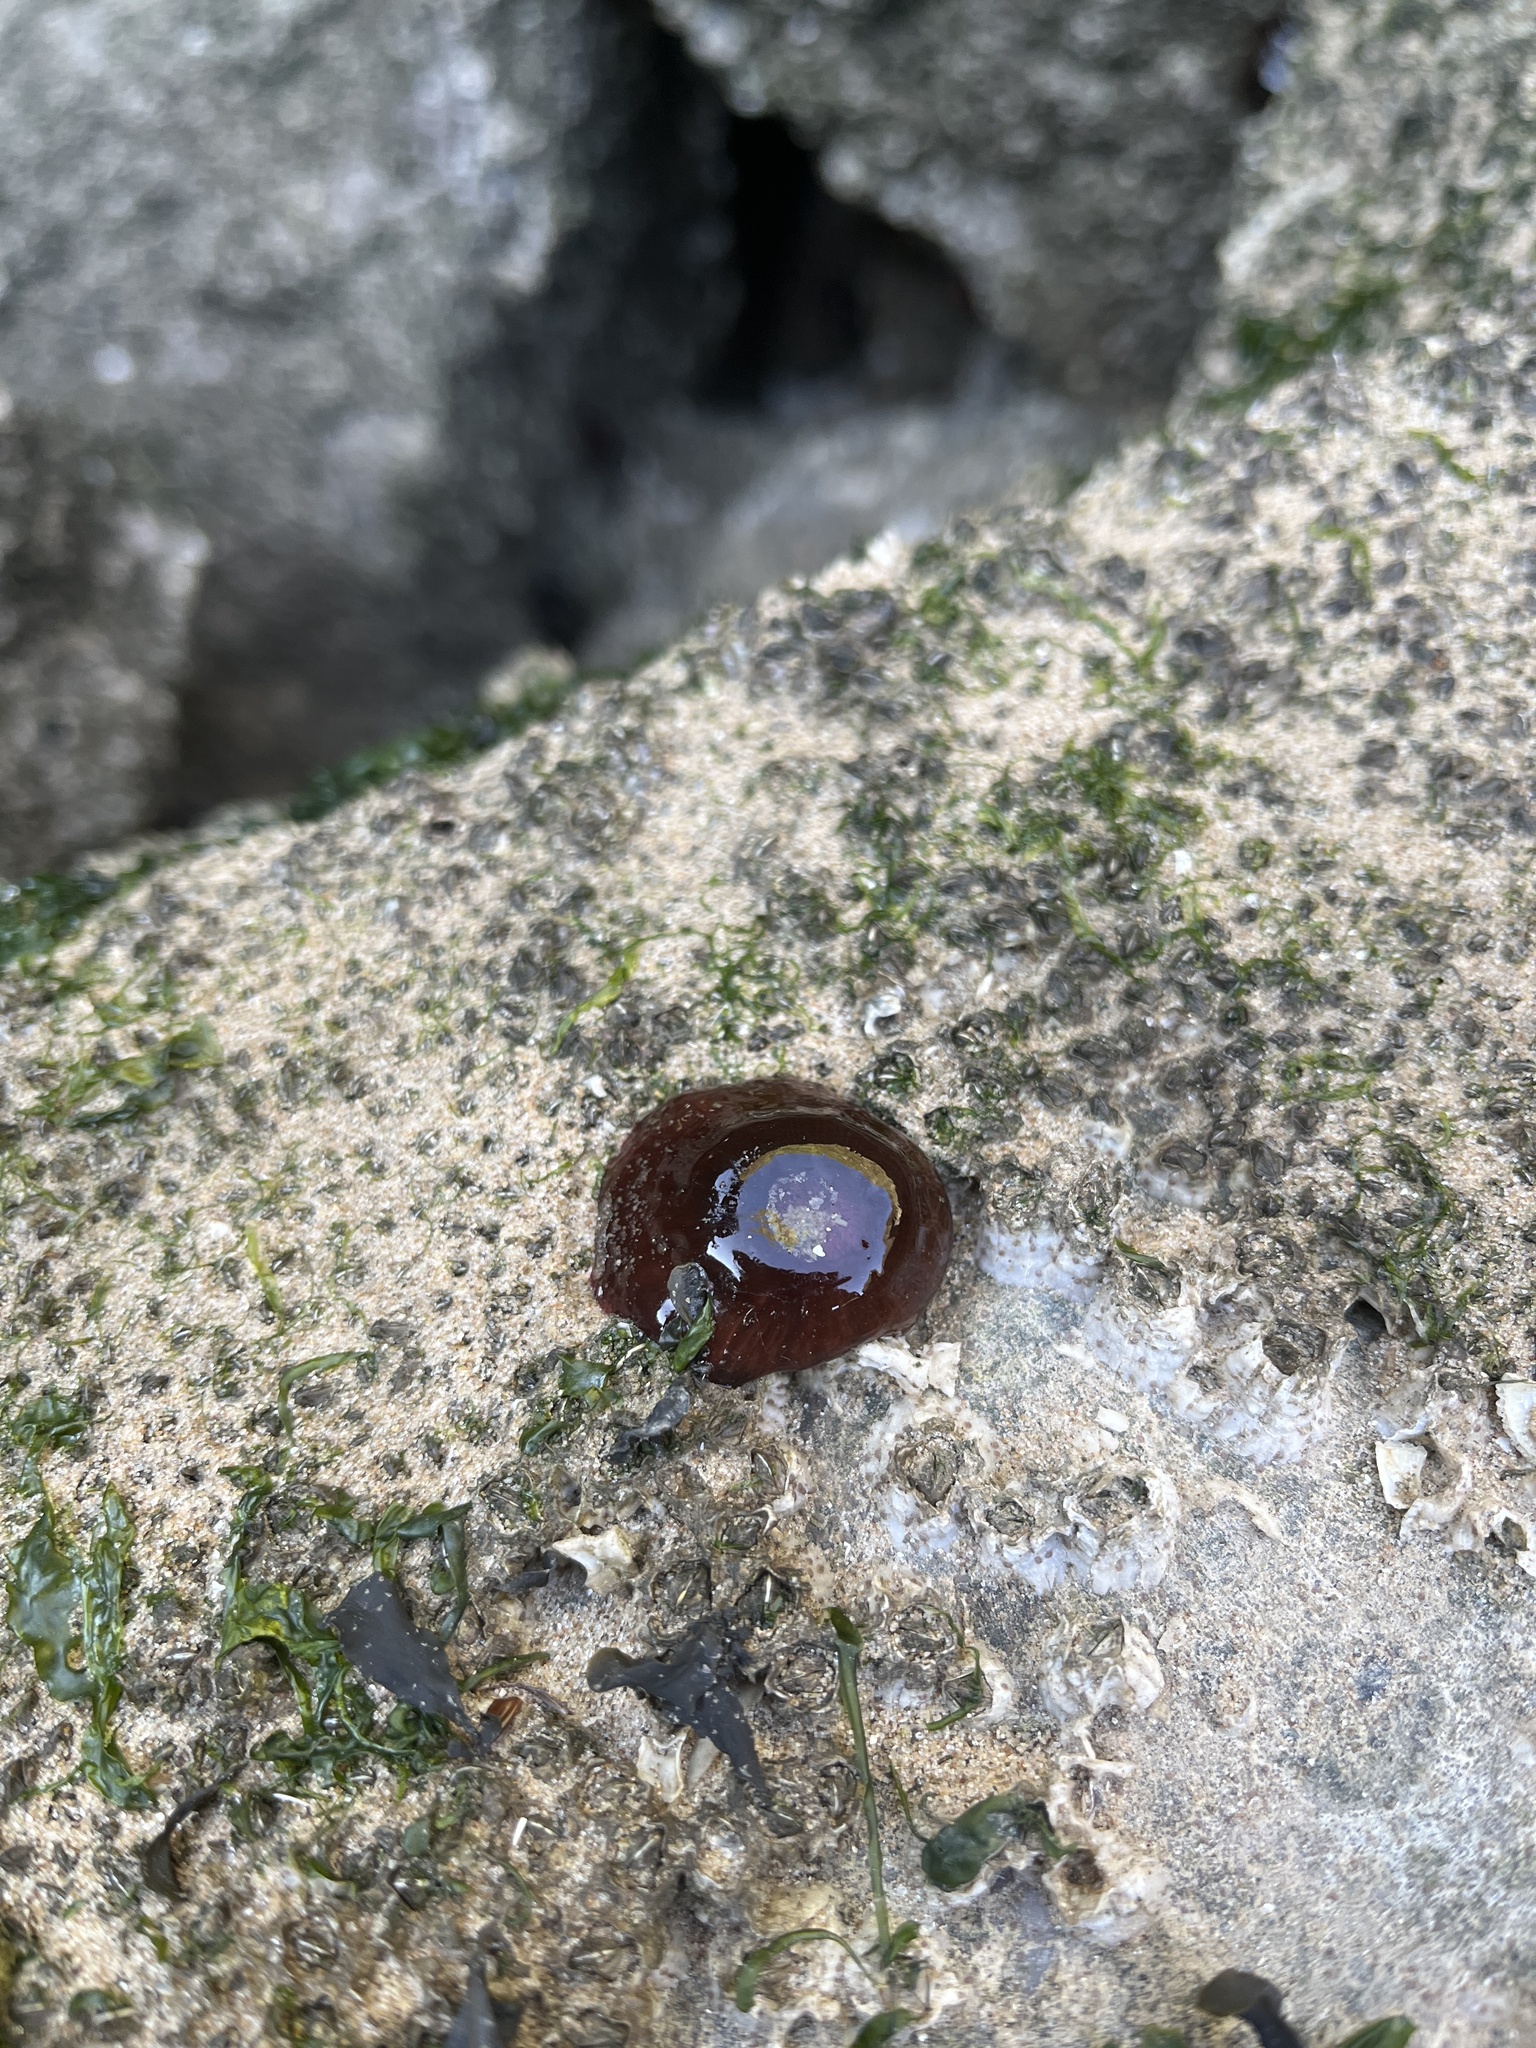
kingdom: Animalia
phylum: Cnidaria
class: Anthozoa
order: Actiniaria
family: Actiniidae
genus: Actinia
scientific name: Actinia equina
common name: Beadlet anemone
